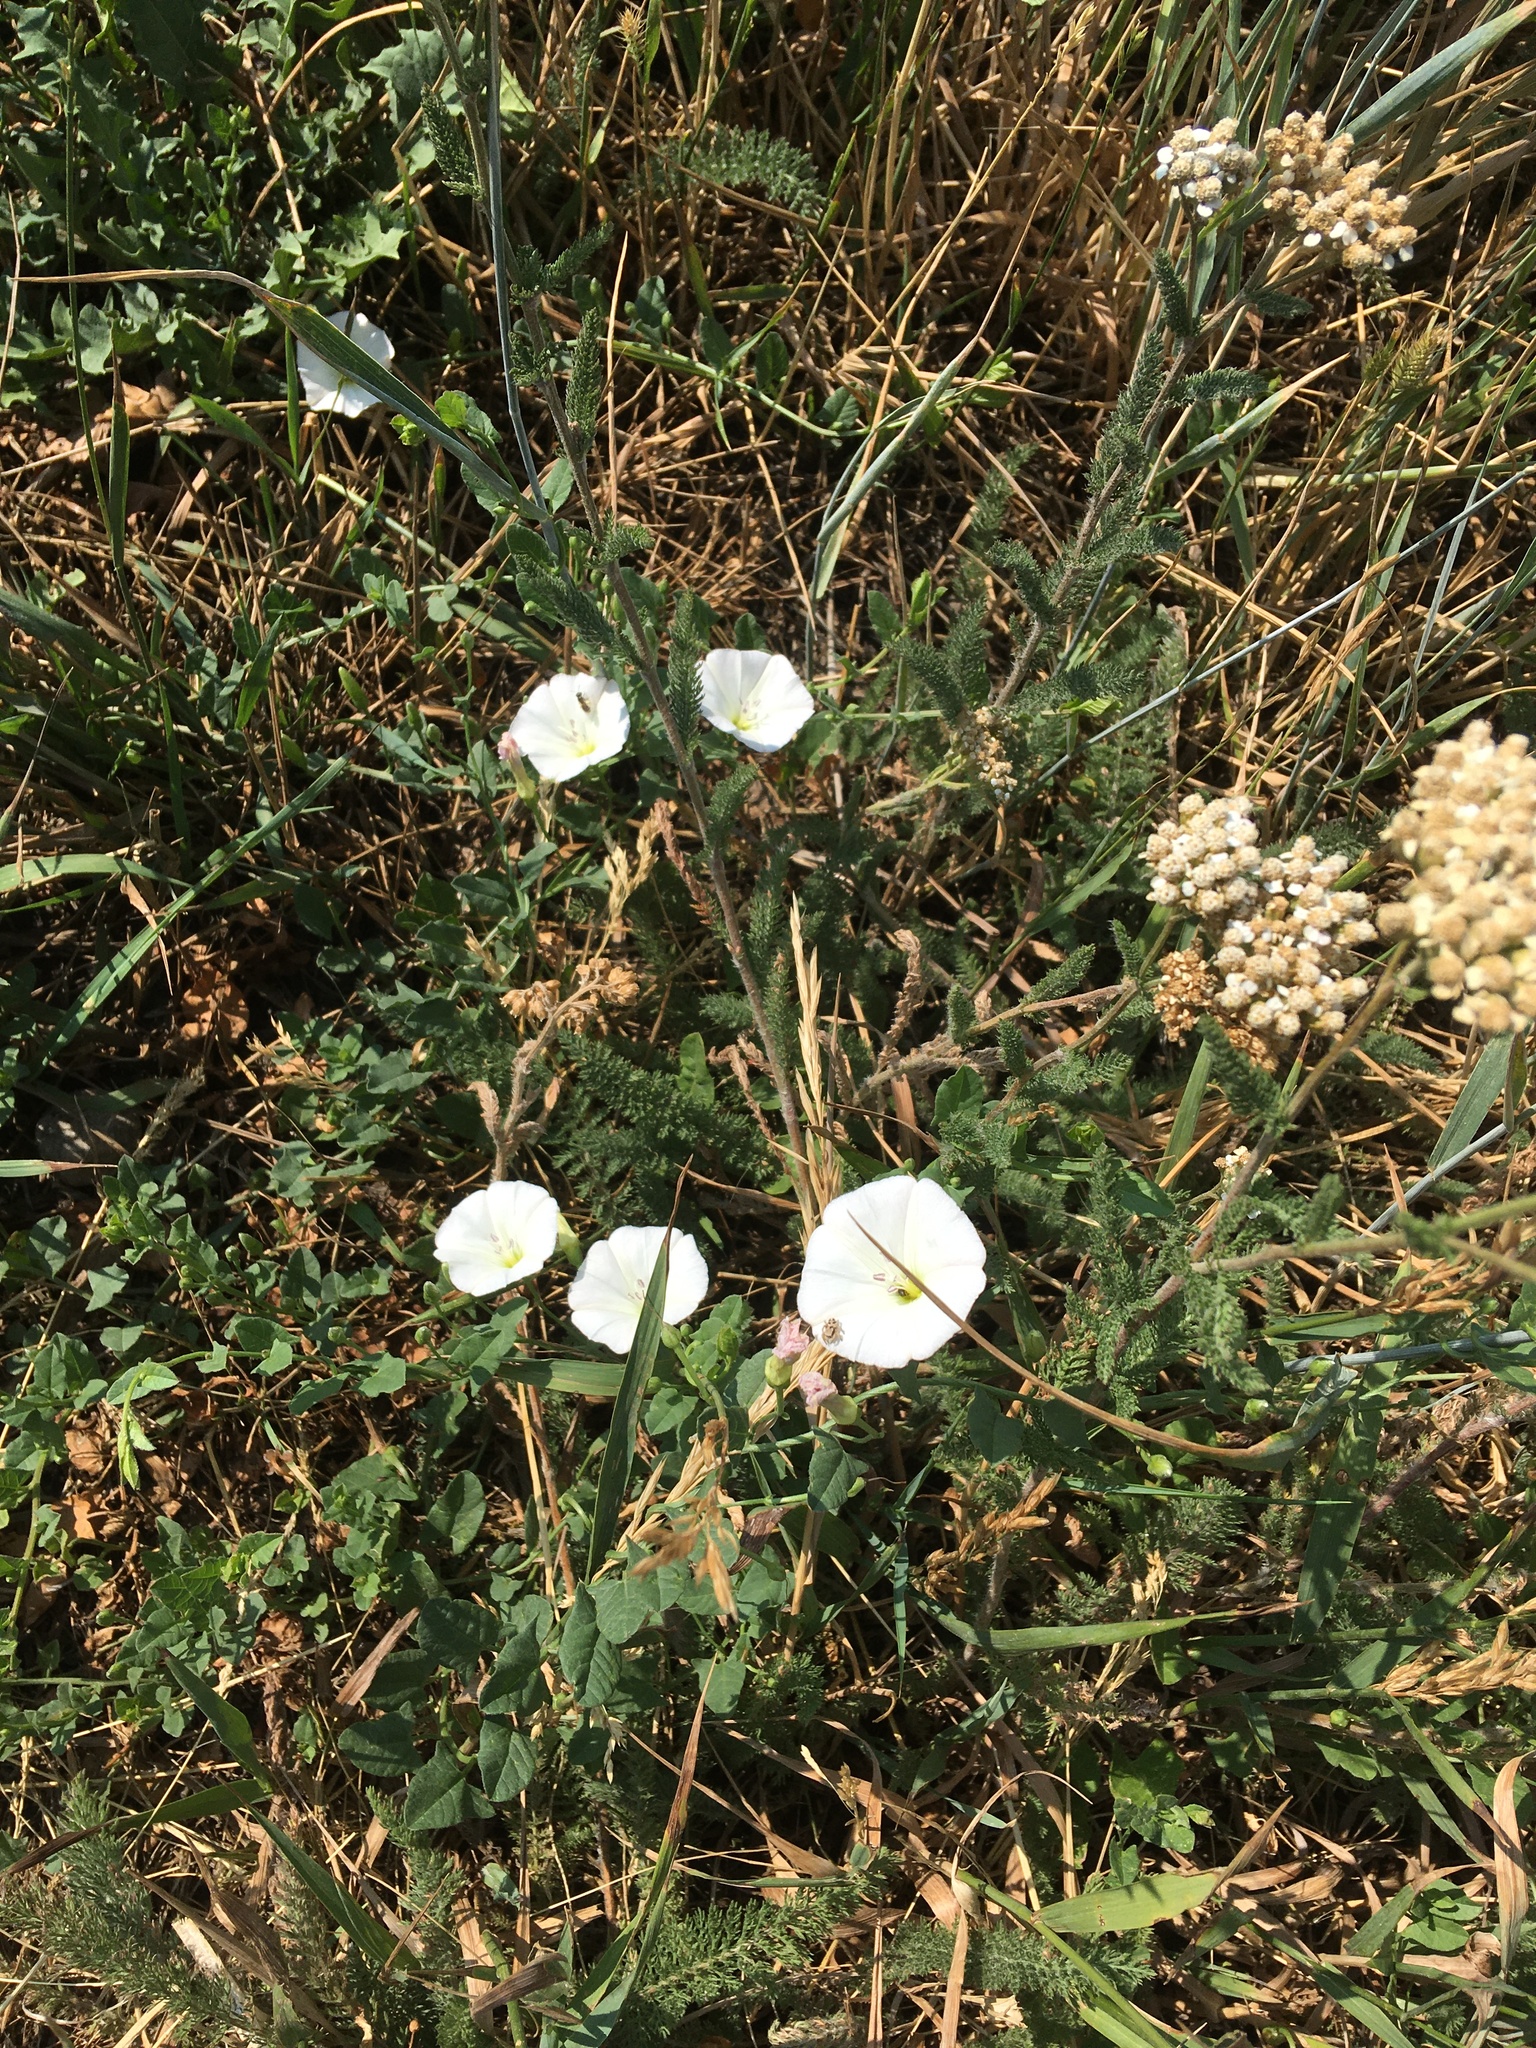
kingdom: Plantae
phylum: Tracheophyta
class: Magnoliopsida
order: Solanales
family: Convolvulaceae
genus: Convolvulus
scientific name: Convolvulus arvensis
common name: Field bindweed
